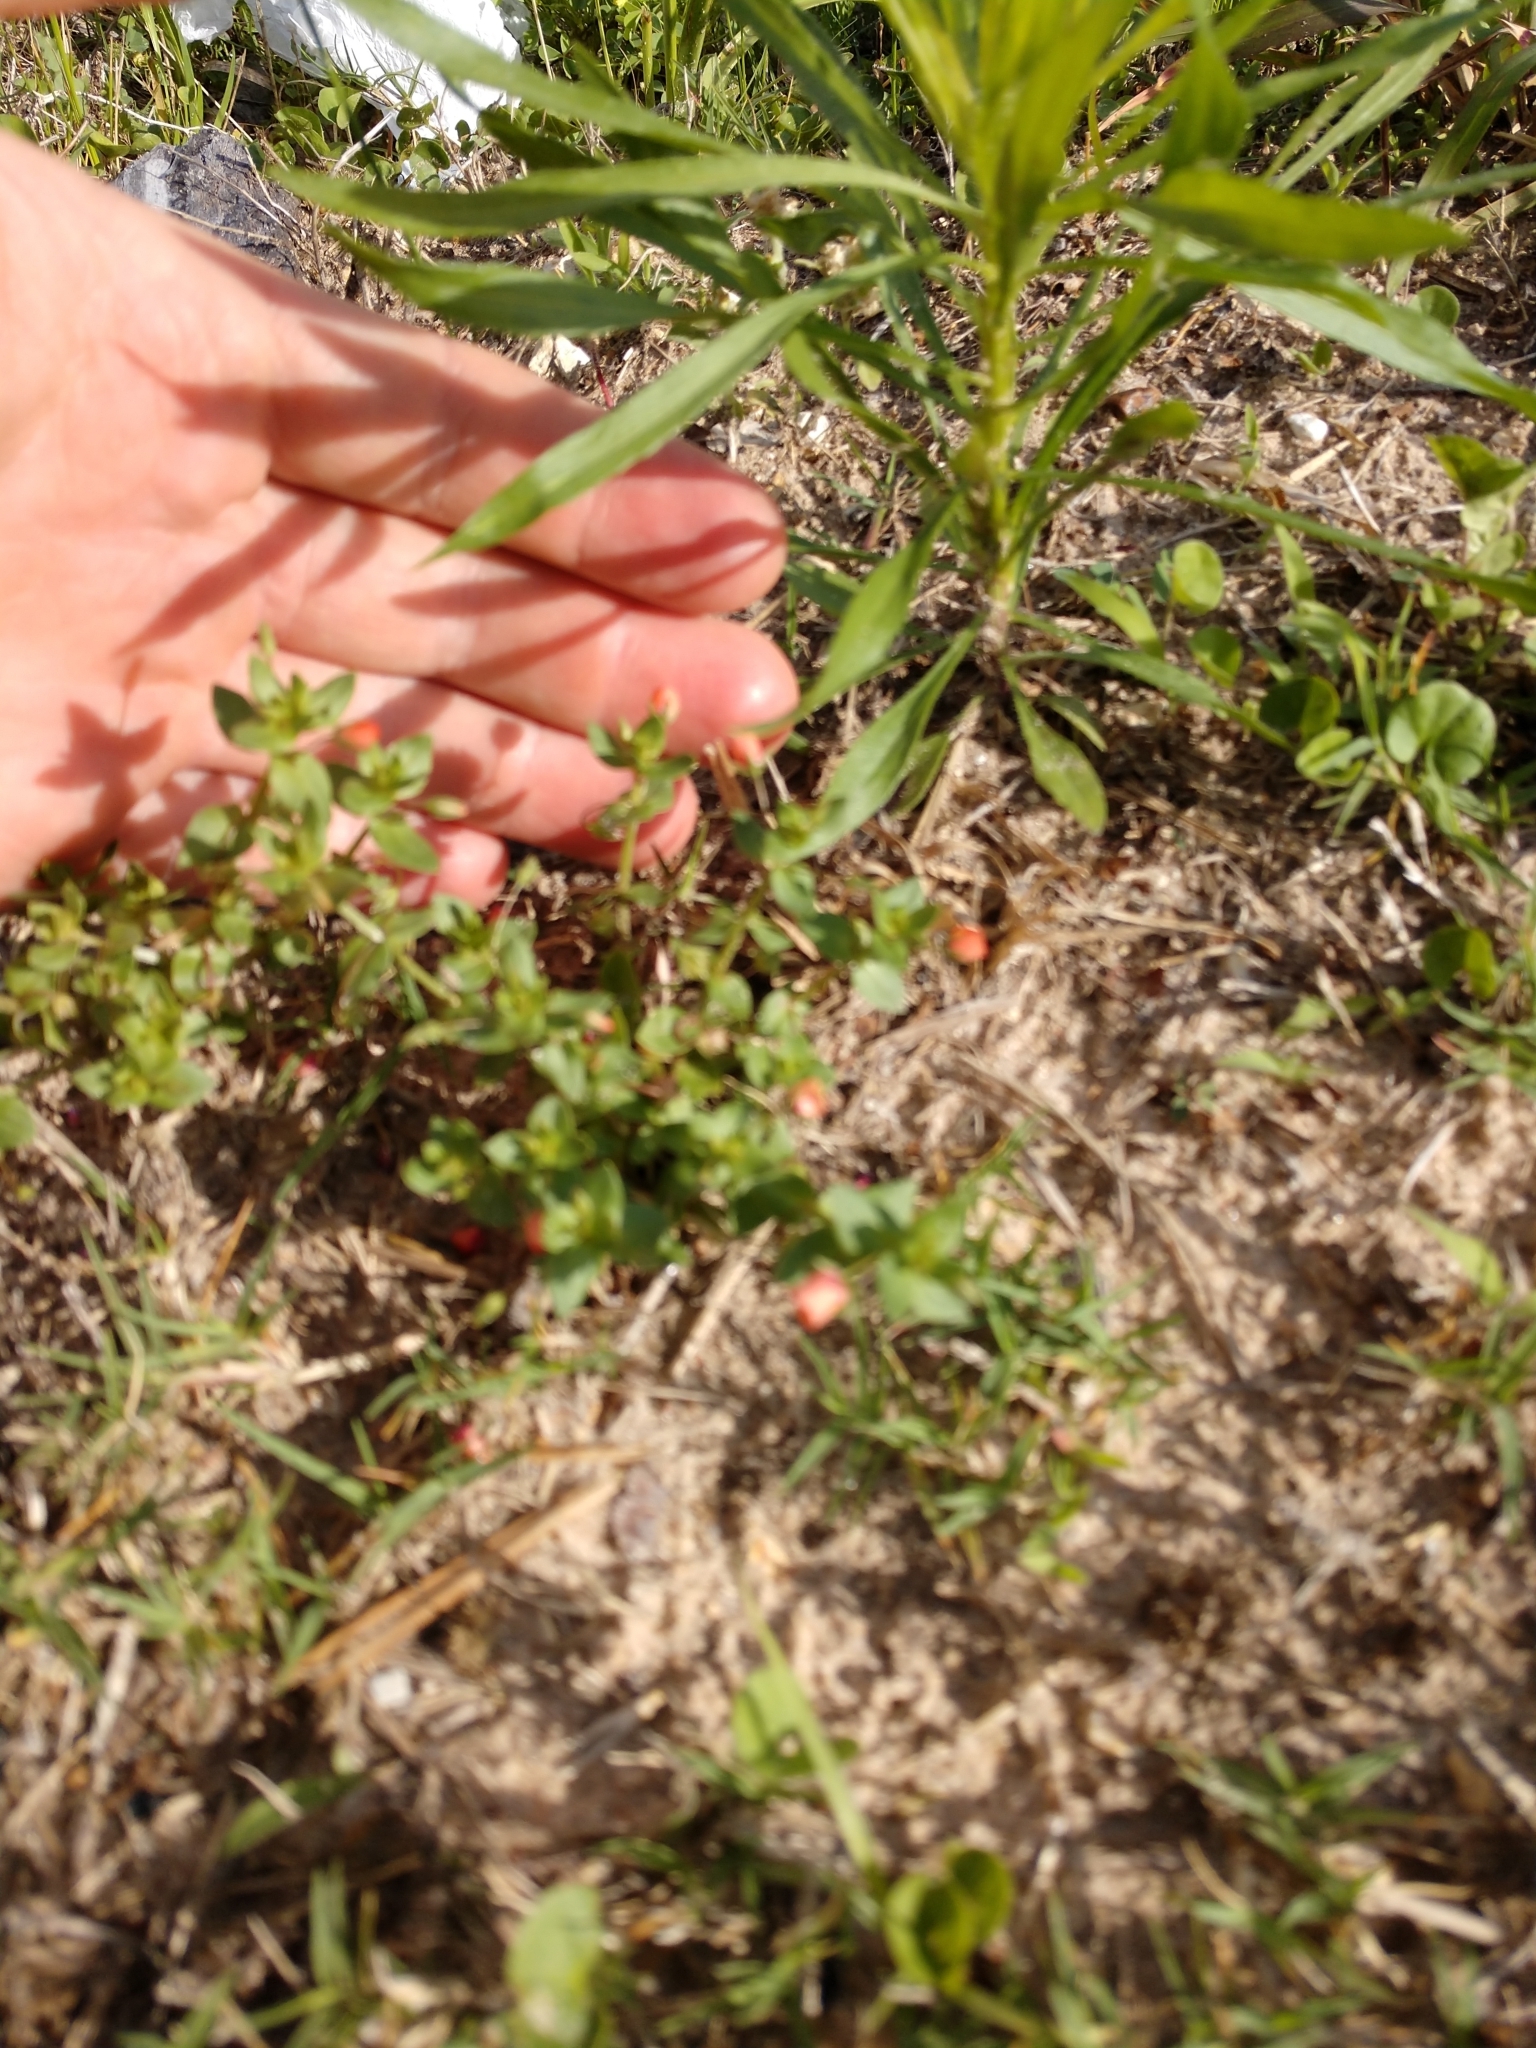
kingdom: Plantae
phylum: Tracheophyta
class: Magnoliopsida
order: Ericales
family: Primulaceae
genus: Lysimachia
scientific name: Lysimachia arvensis
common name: Scarlet pimpernel
